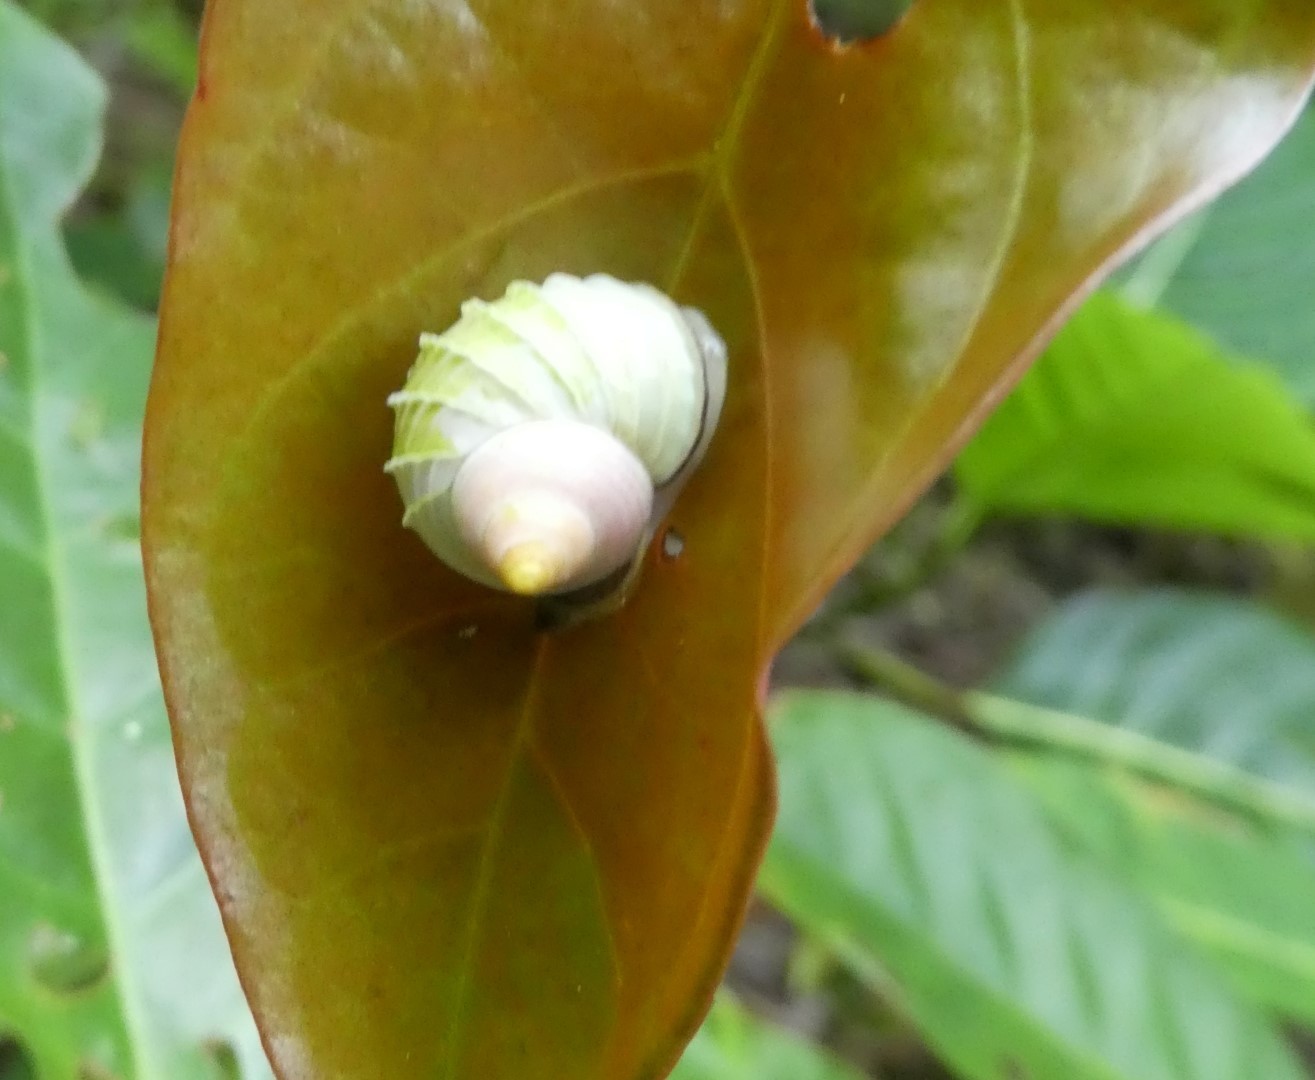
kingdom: Animalia
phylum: Mollusca
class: Gastropoda
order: Architaenioglossa
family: Cyclophoridae
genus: Leptopoma
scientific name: Leptopoma multilabre
